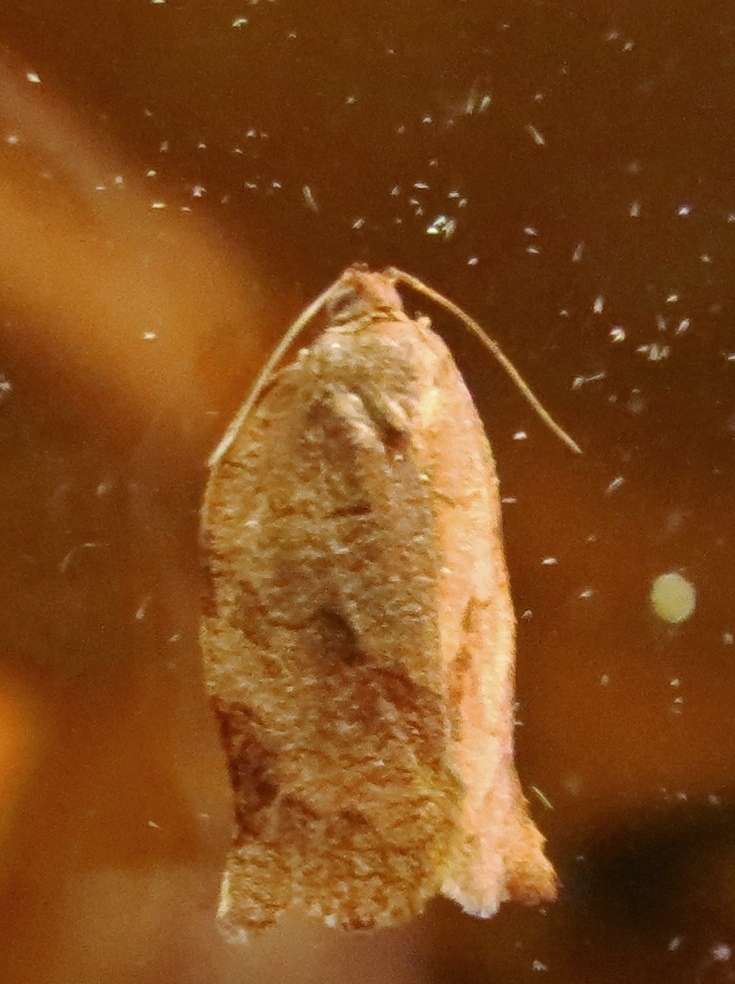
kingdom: Animalia
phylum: Arthropoda
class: Insecta
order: Lepidoptera
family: Tortricidae
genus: Choristoneura
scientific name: Choristoneura rosaceana
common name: Oblique-banded leafroller moth
